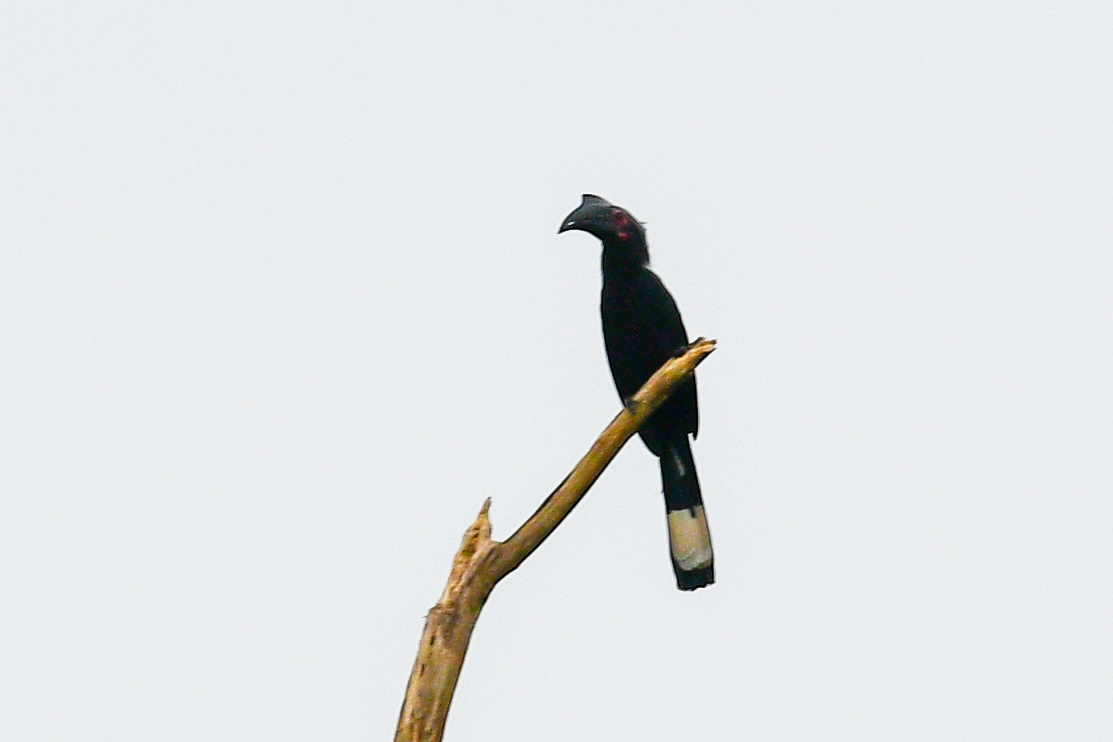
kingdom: Animalia
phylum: Chordata
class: Aves
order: Bucerotiformes
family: Bucerotidae
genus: Anthracoceros
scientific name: Anthracoceros malayanus
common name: Black hornbill
